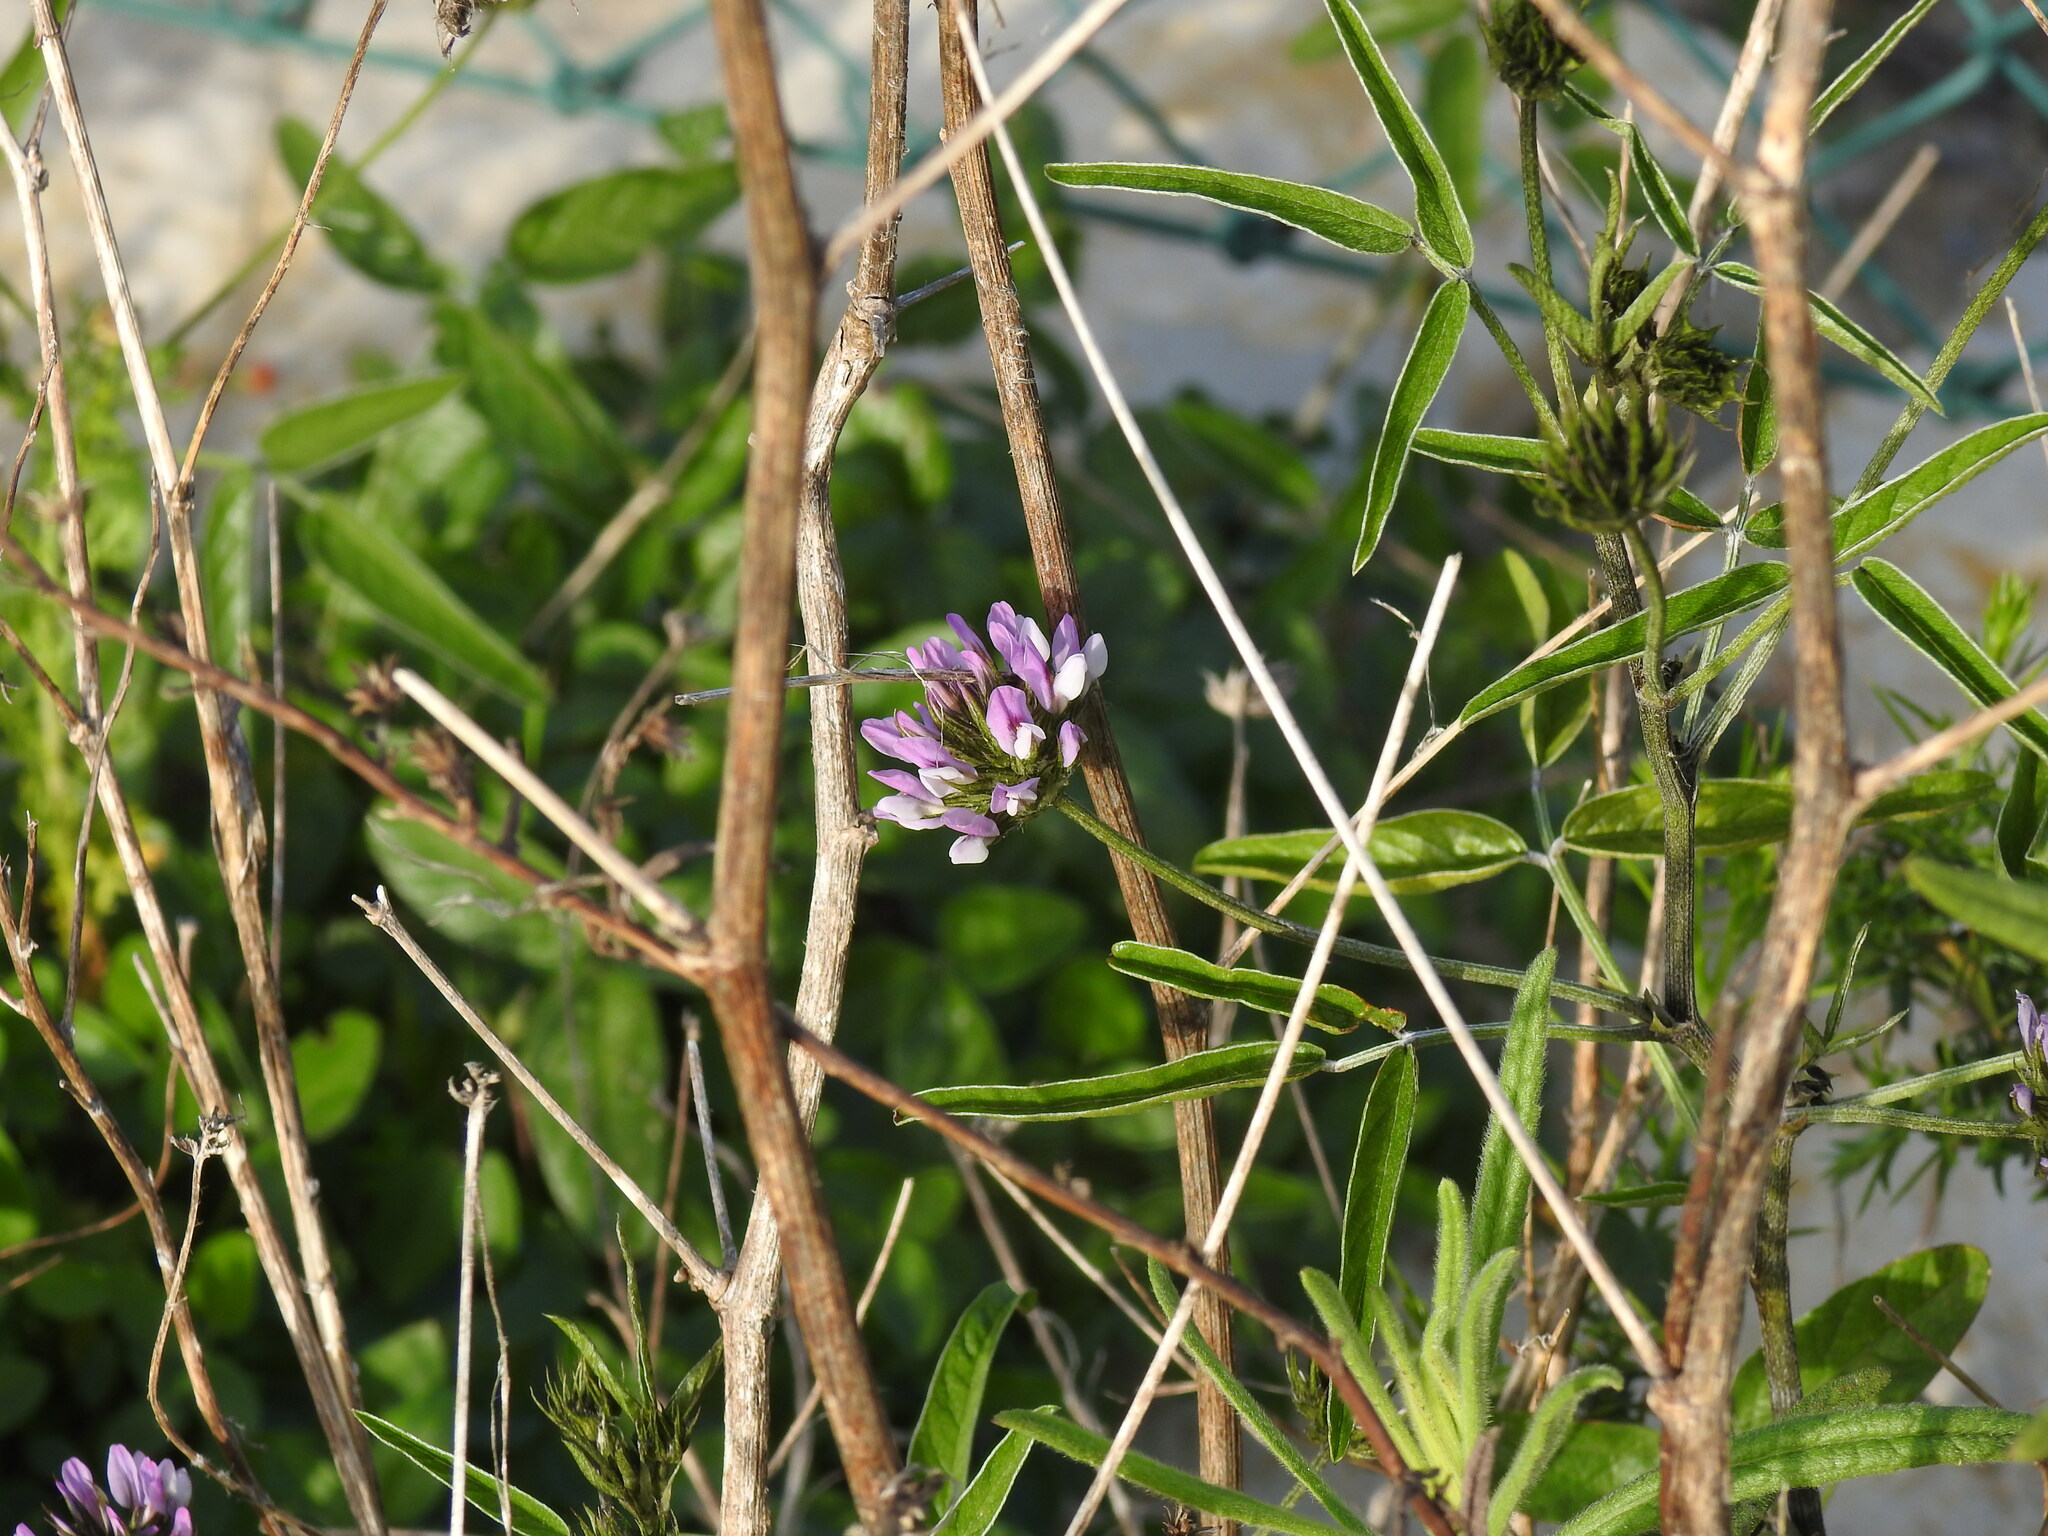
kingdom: Plantae
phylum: Tracheophyta
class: Magnoliopsida
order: Fabales
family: Fabaceae
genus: Bituminaria
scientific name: Bituminaria bituminosa
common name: Arabian pea
